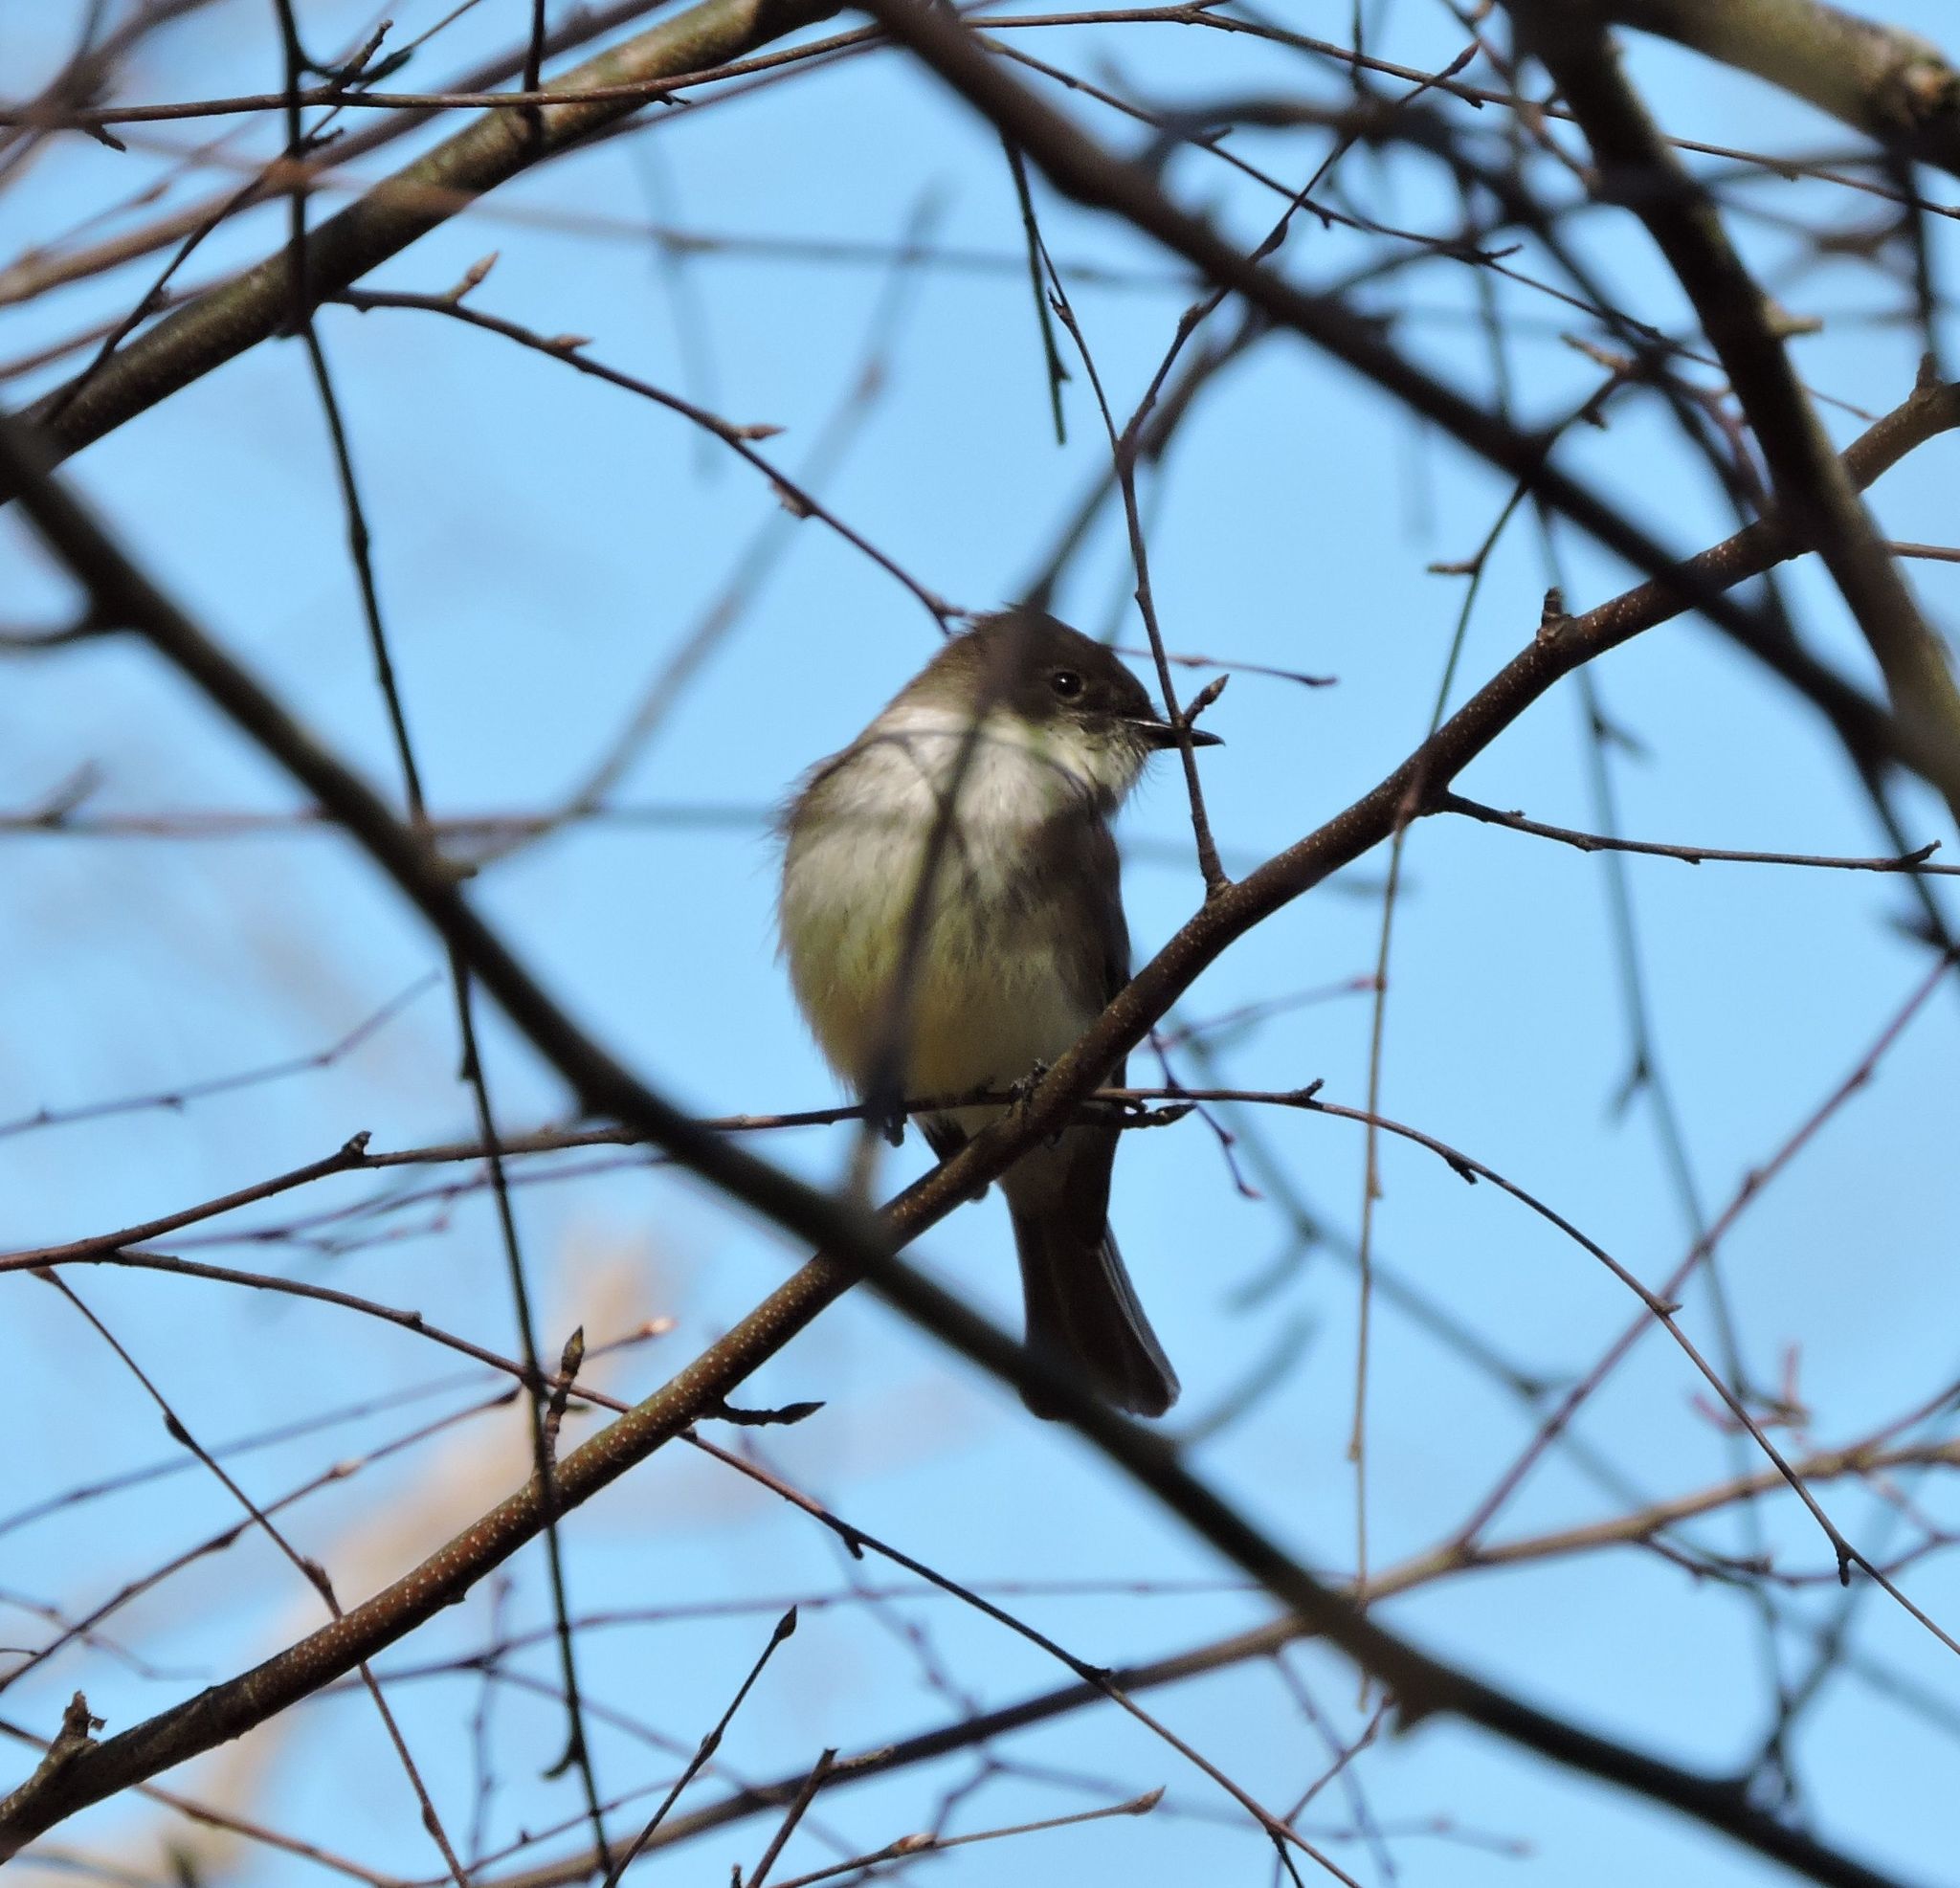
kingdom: Animalia
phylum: Chordata
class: Aves
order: Passeriformes
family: Tyrannidae
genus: Sayornis
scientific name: Sayornis phoebe
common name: Eastern phoebe
